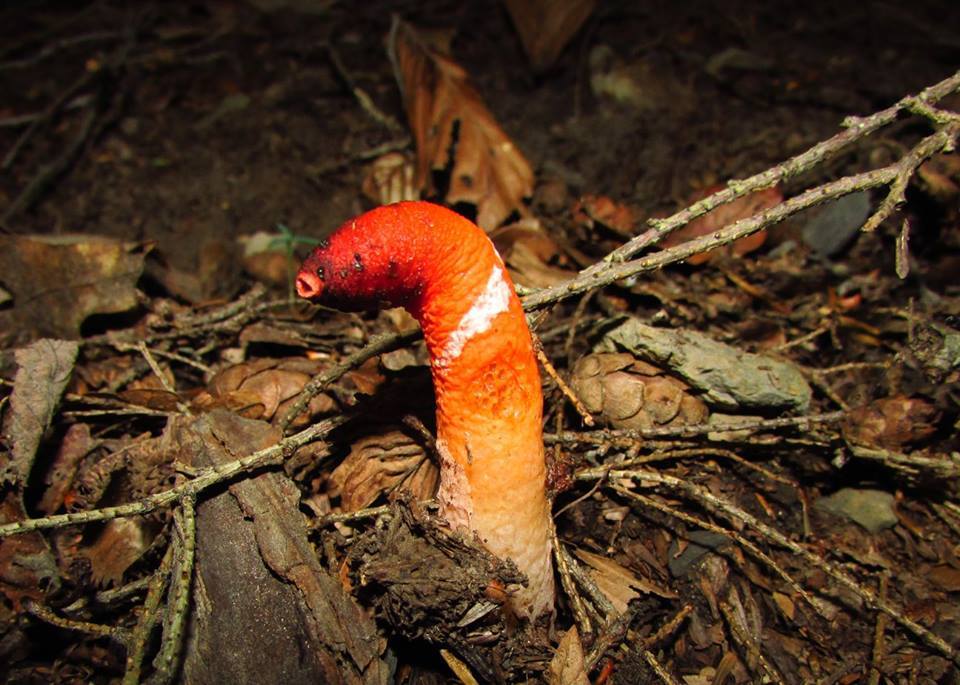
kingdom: Fungi
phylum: Basidiomycota
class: Agaricomycetes
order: Phallales
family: Phallaceae
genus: Mutinus
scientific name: Mutinus elegans
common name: Devil's dipstick
